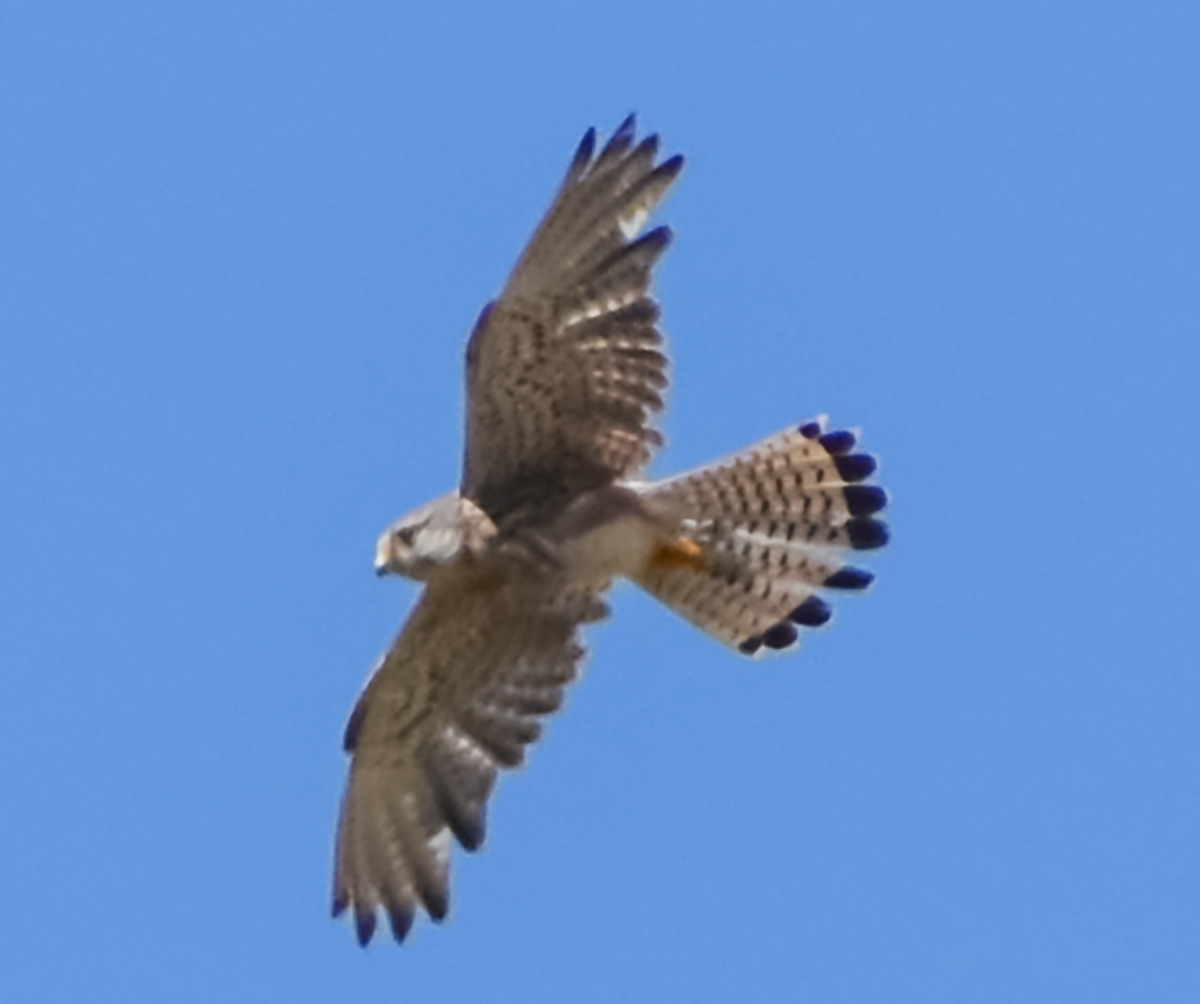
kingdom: Animalia
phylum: Chordata
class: Aves
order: Falconiformes
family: Falconidae
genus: Falco
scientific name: Falco tinnunculus
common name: Common kestrel
